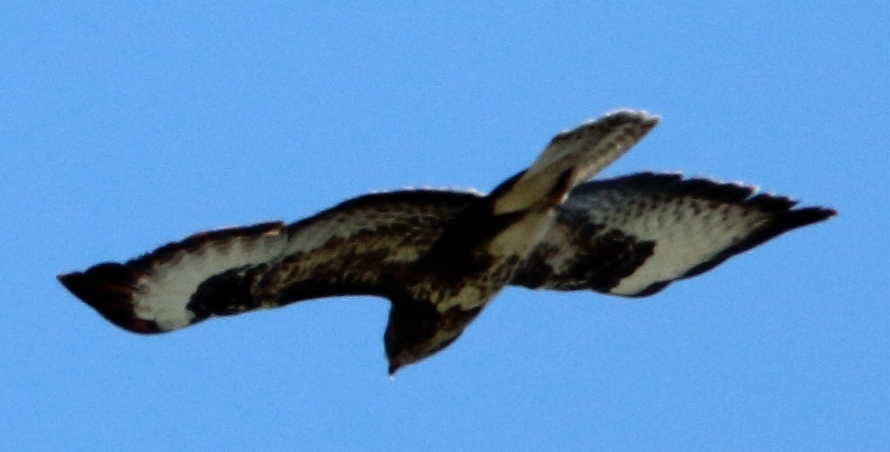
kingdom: Animalia
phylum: Chordata
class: Aves
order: Accipitriformes
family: Accipitridae
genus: Buteo
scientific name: Buteo buteo
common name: Common buzzard
